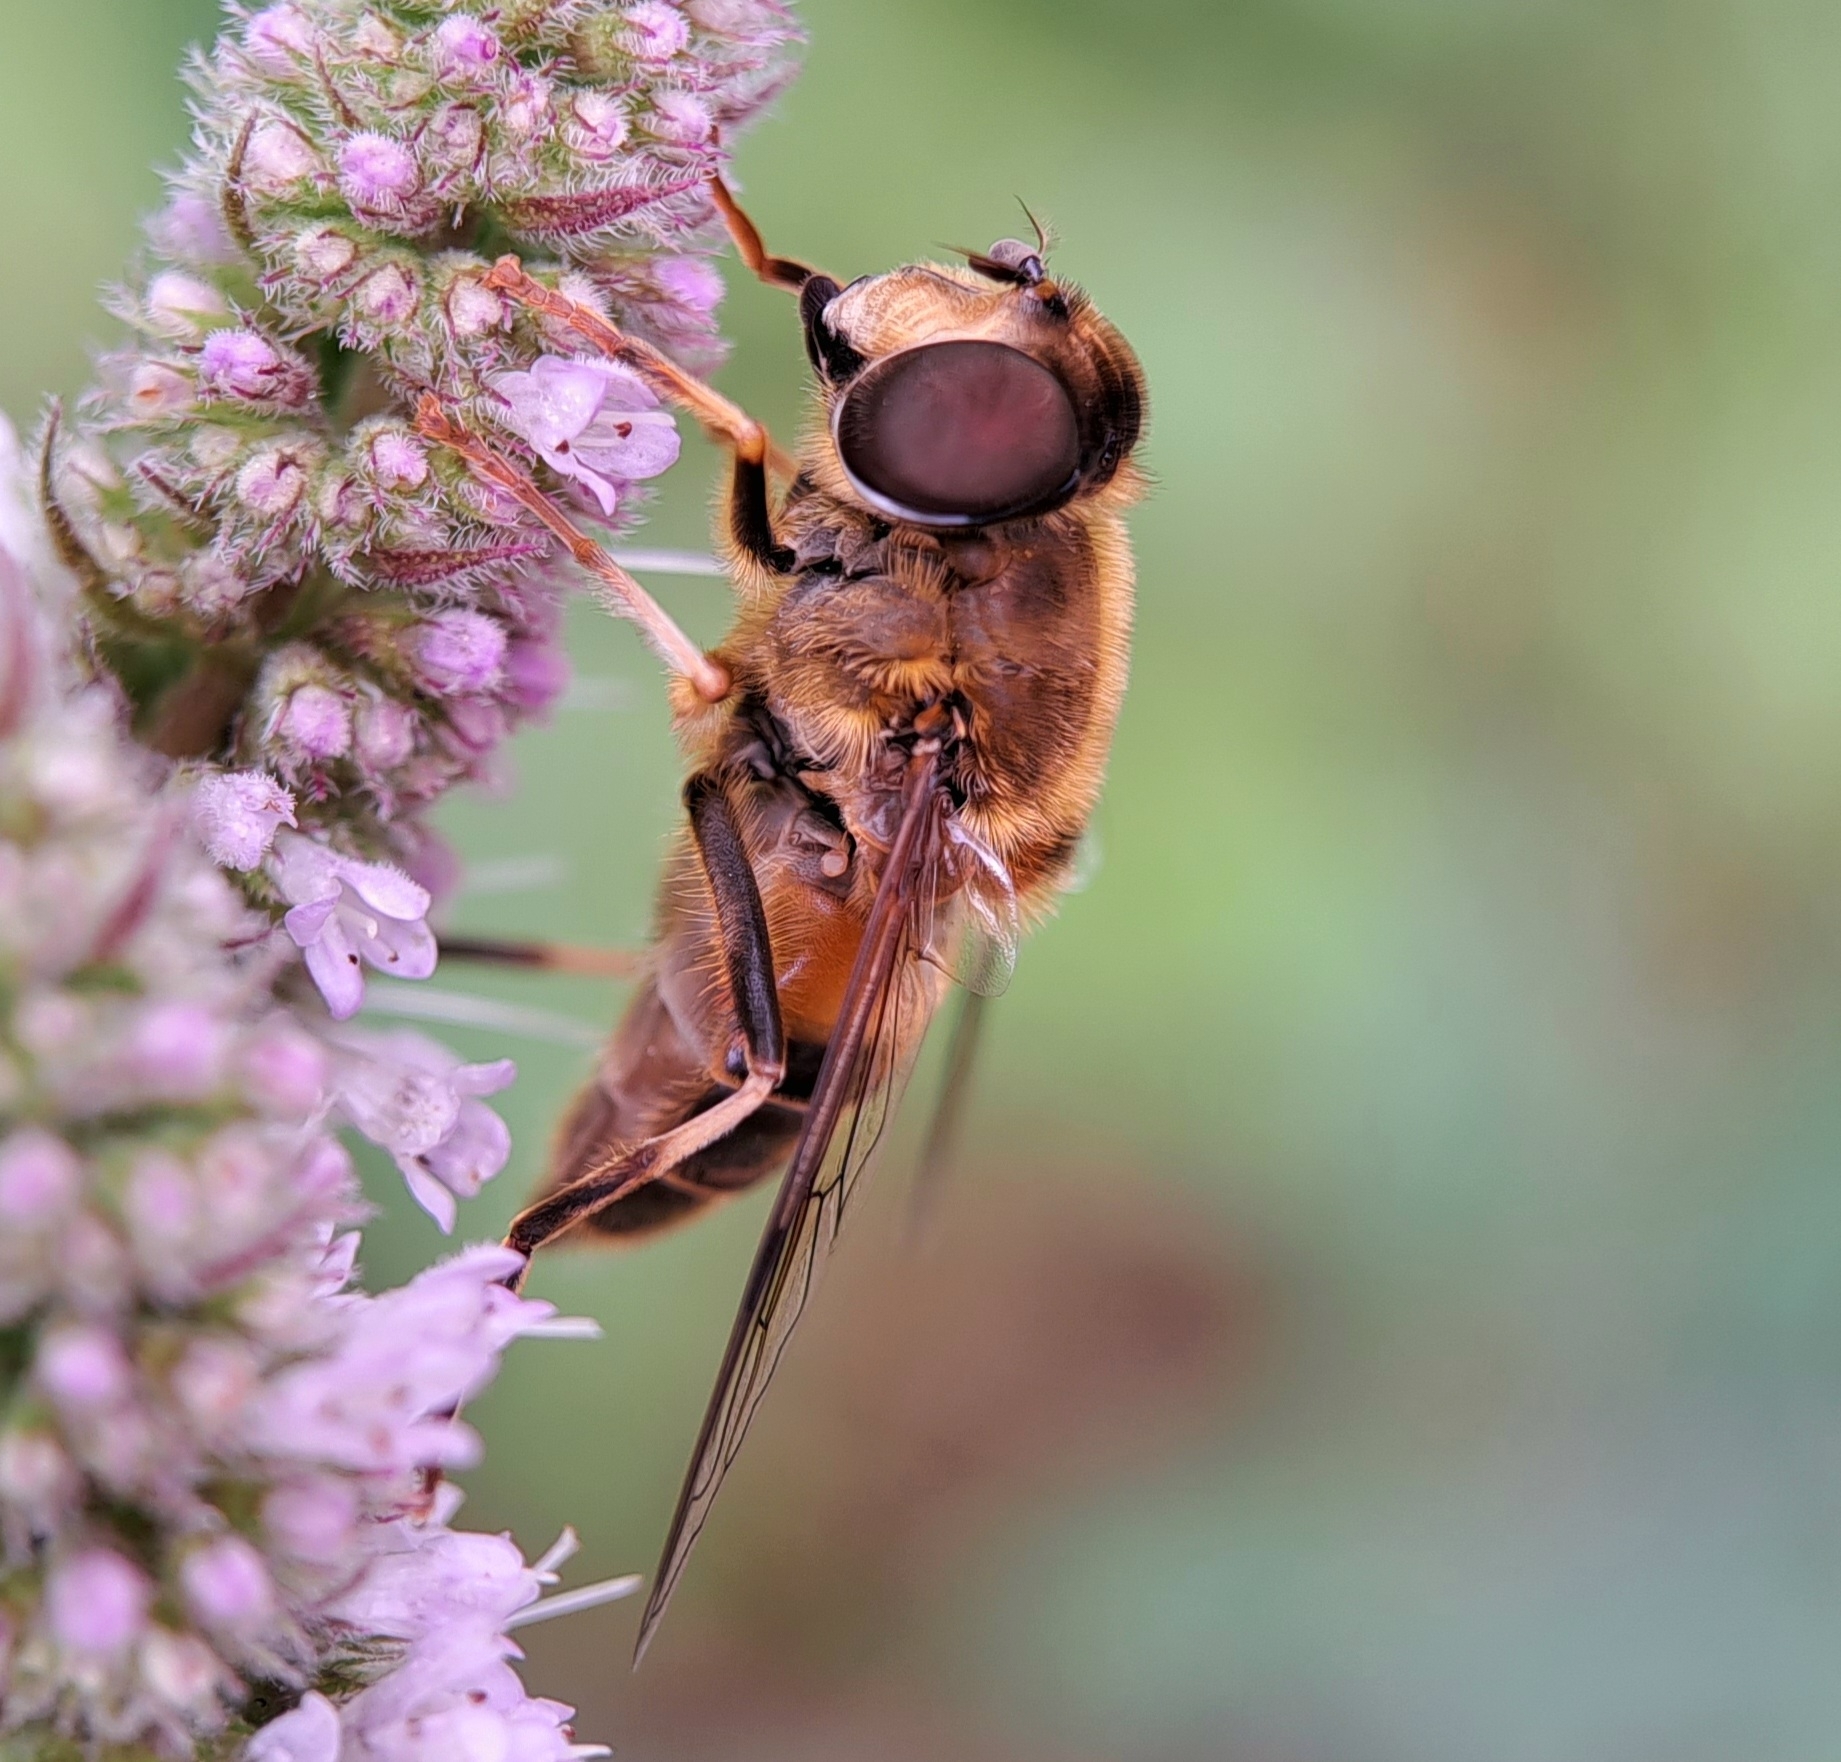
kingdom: Animalia
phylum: Arthropoda
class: Insecta
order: Diptera
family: Syrphidae
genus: Eristalis
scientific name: Eristalis pertinax
